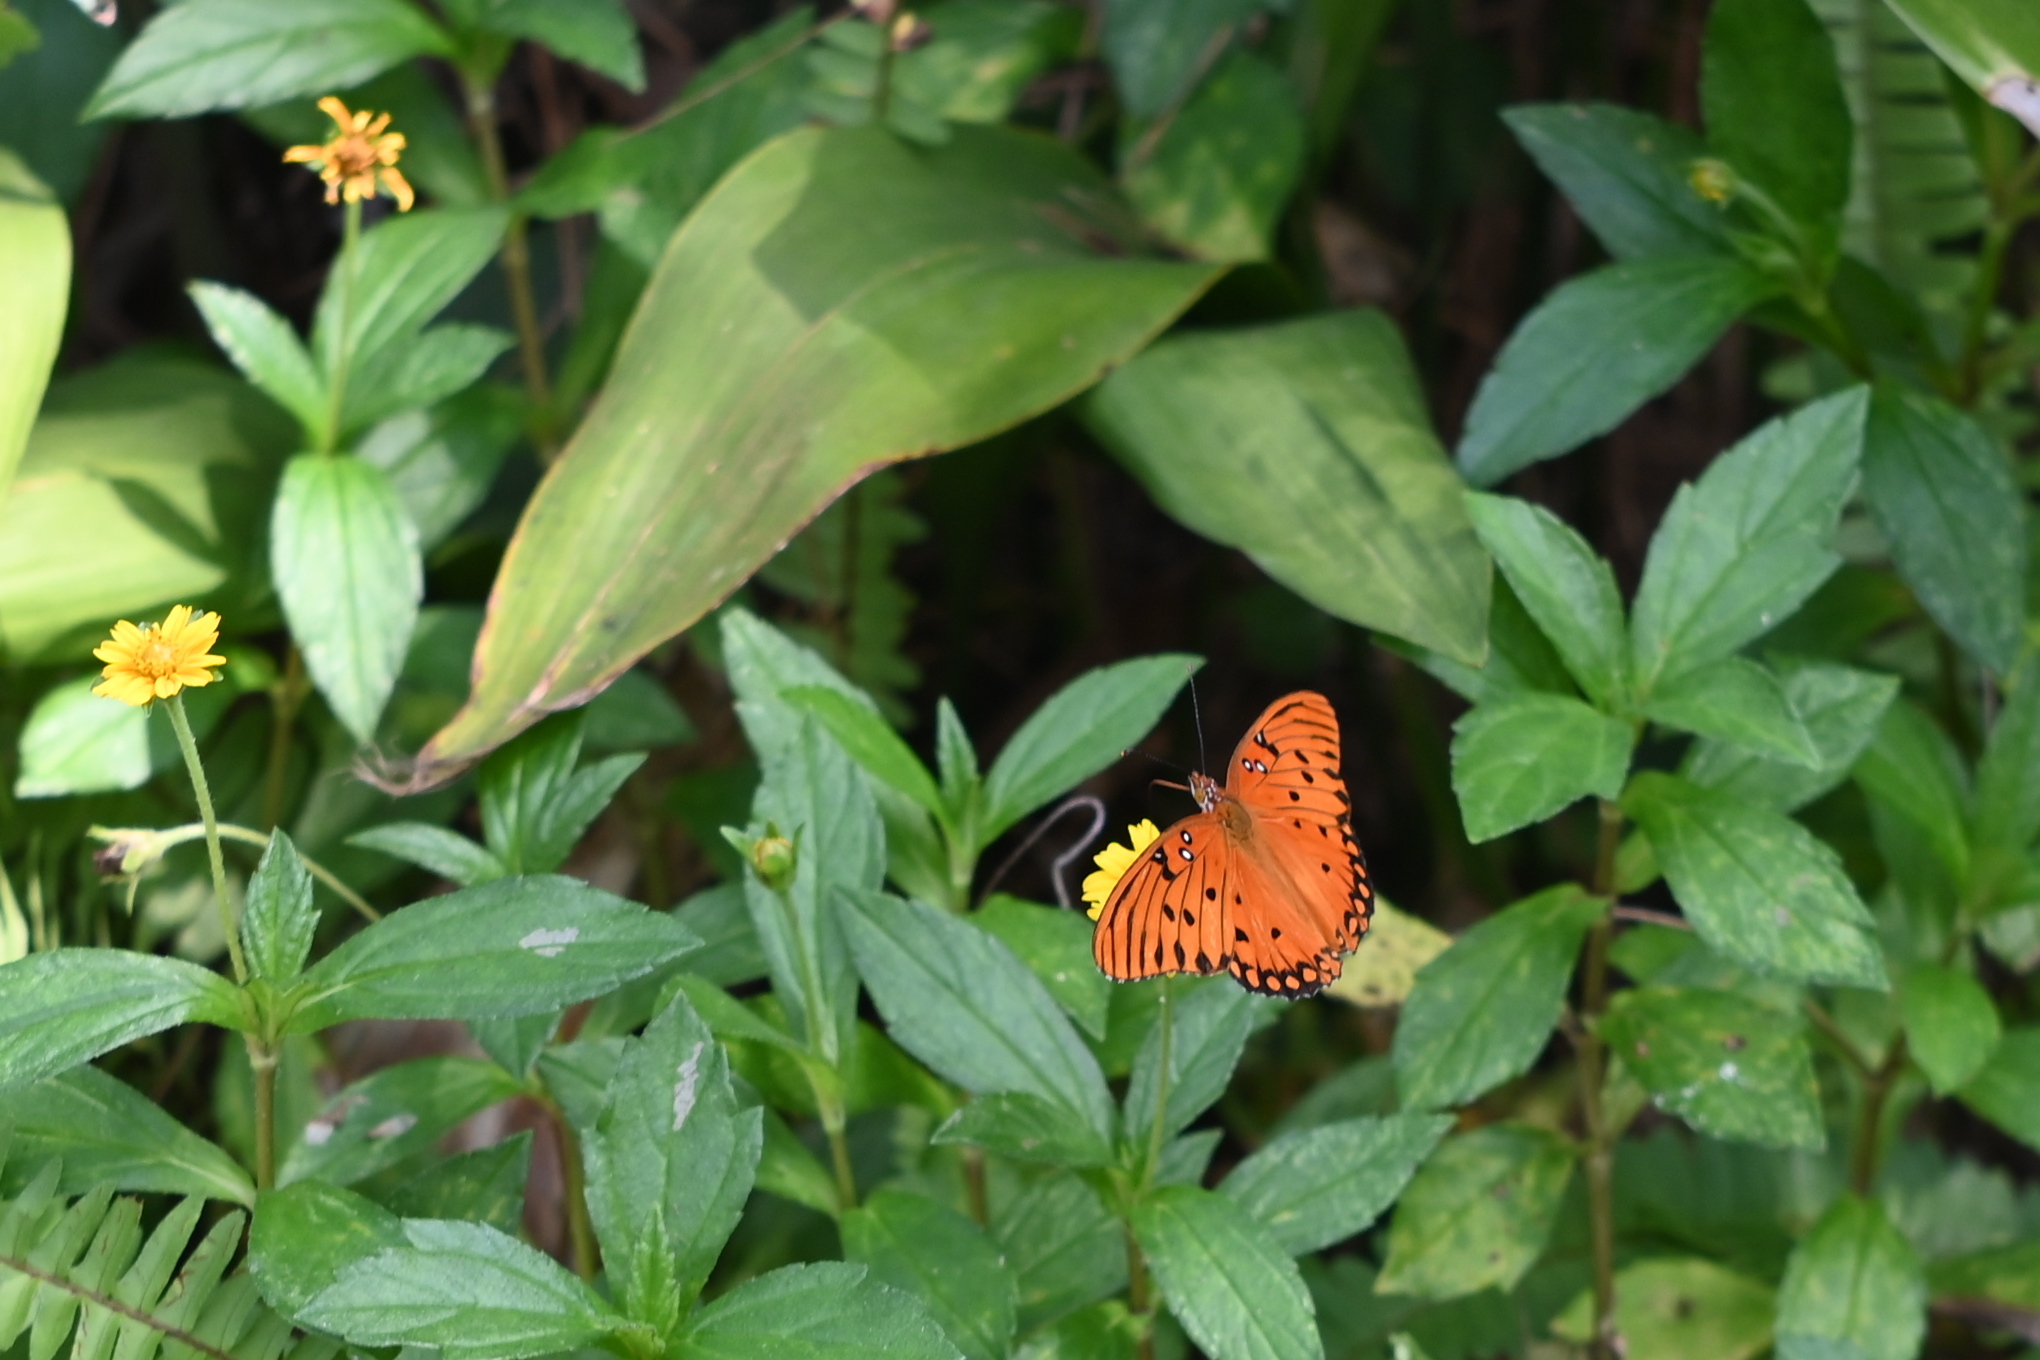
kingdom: Animalia
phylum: Arthropoda
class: Insecta
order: Lepidoptera
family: Nymphalidae
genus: Dione
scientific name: Dione vanillae
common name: Gulf fritillary
